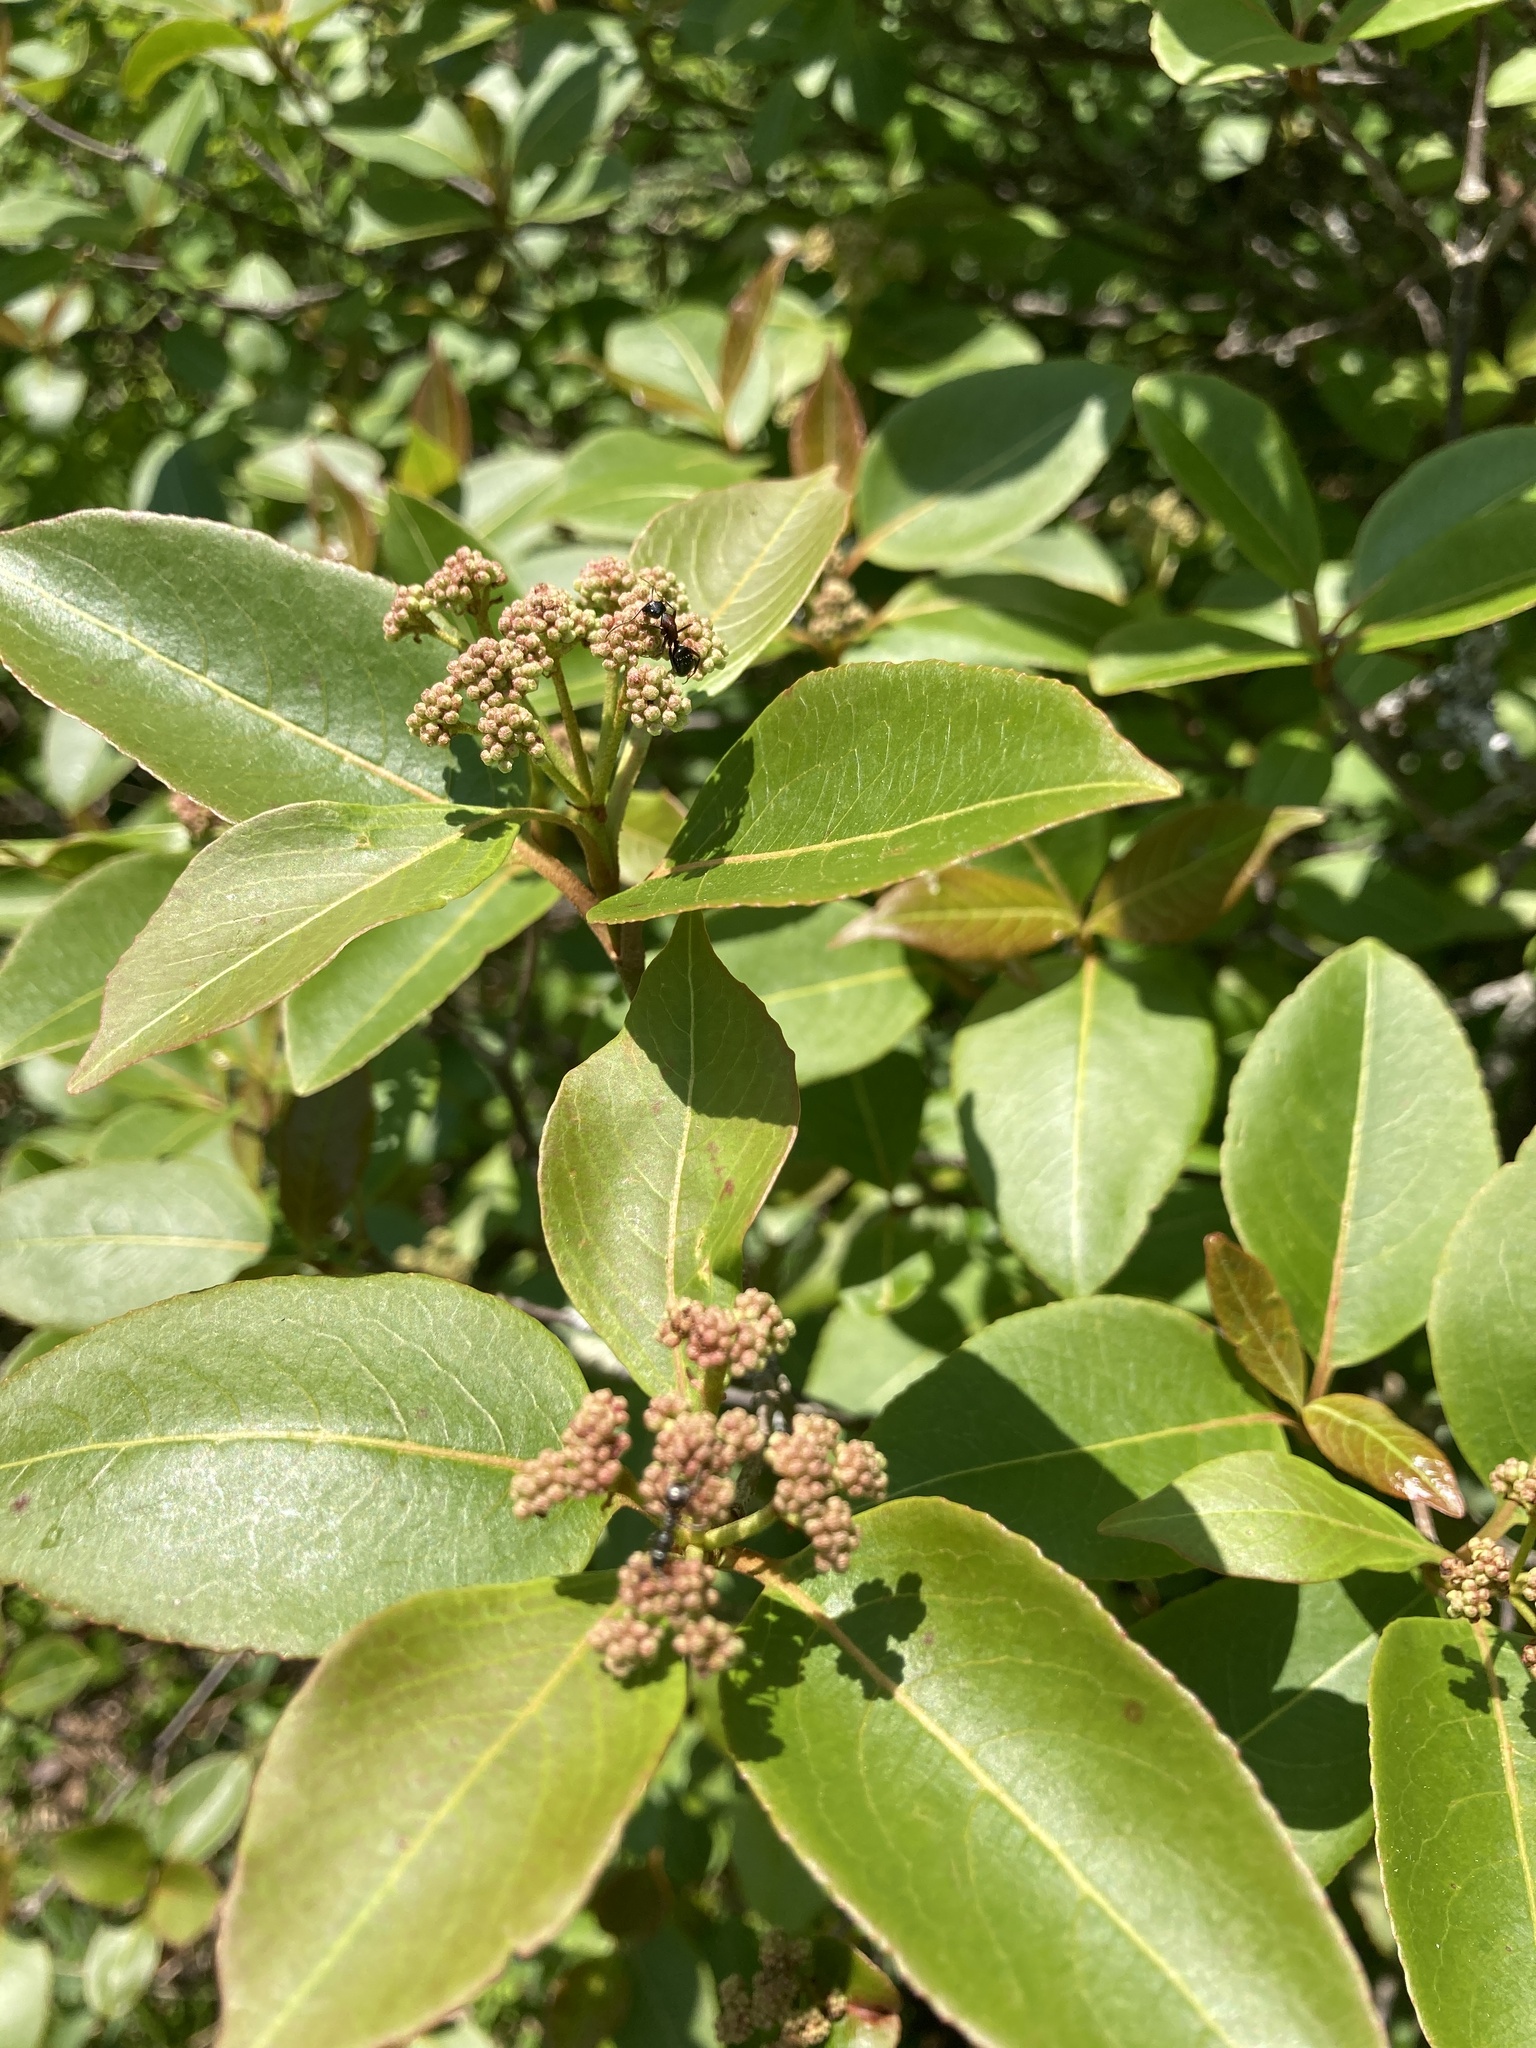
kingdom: Plantae
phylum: Tracheophyta
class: Magnoliopsida
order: Dipsacales
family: Viburnaceae
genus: Viburnum
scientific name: Viburnum cassinoides
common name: Swamp haw
